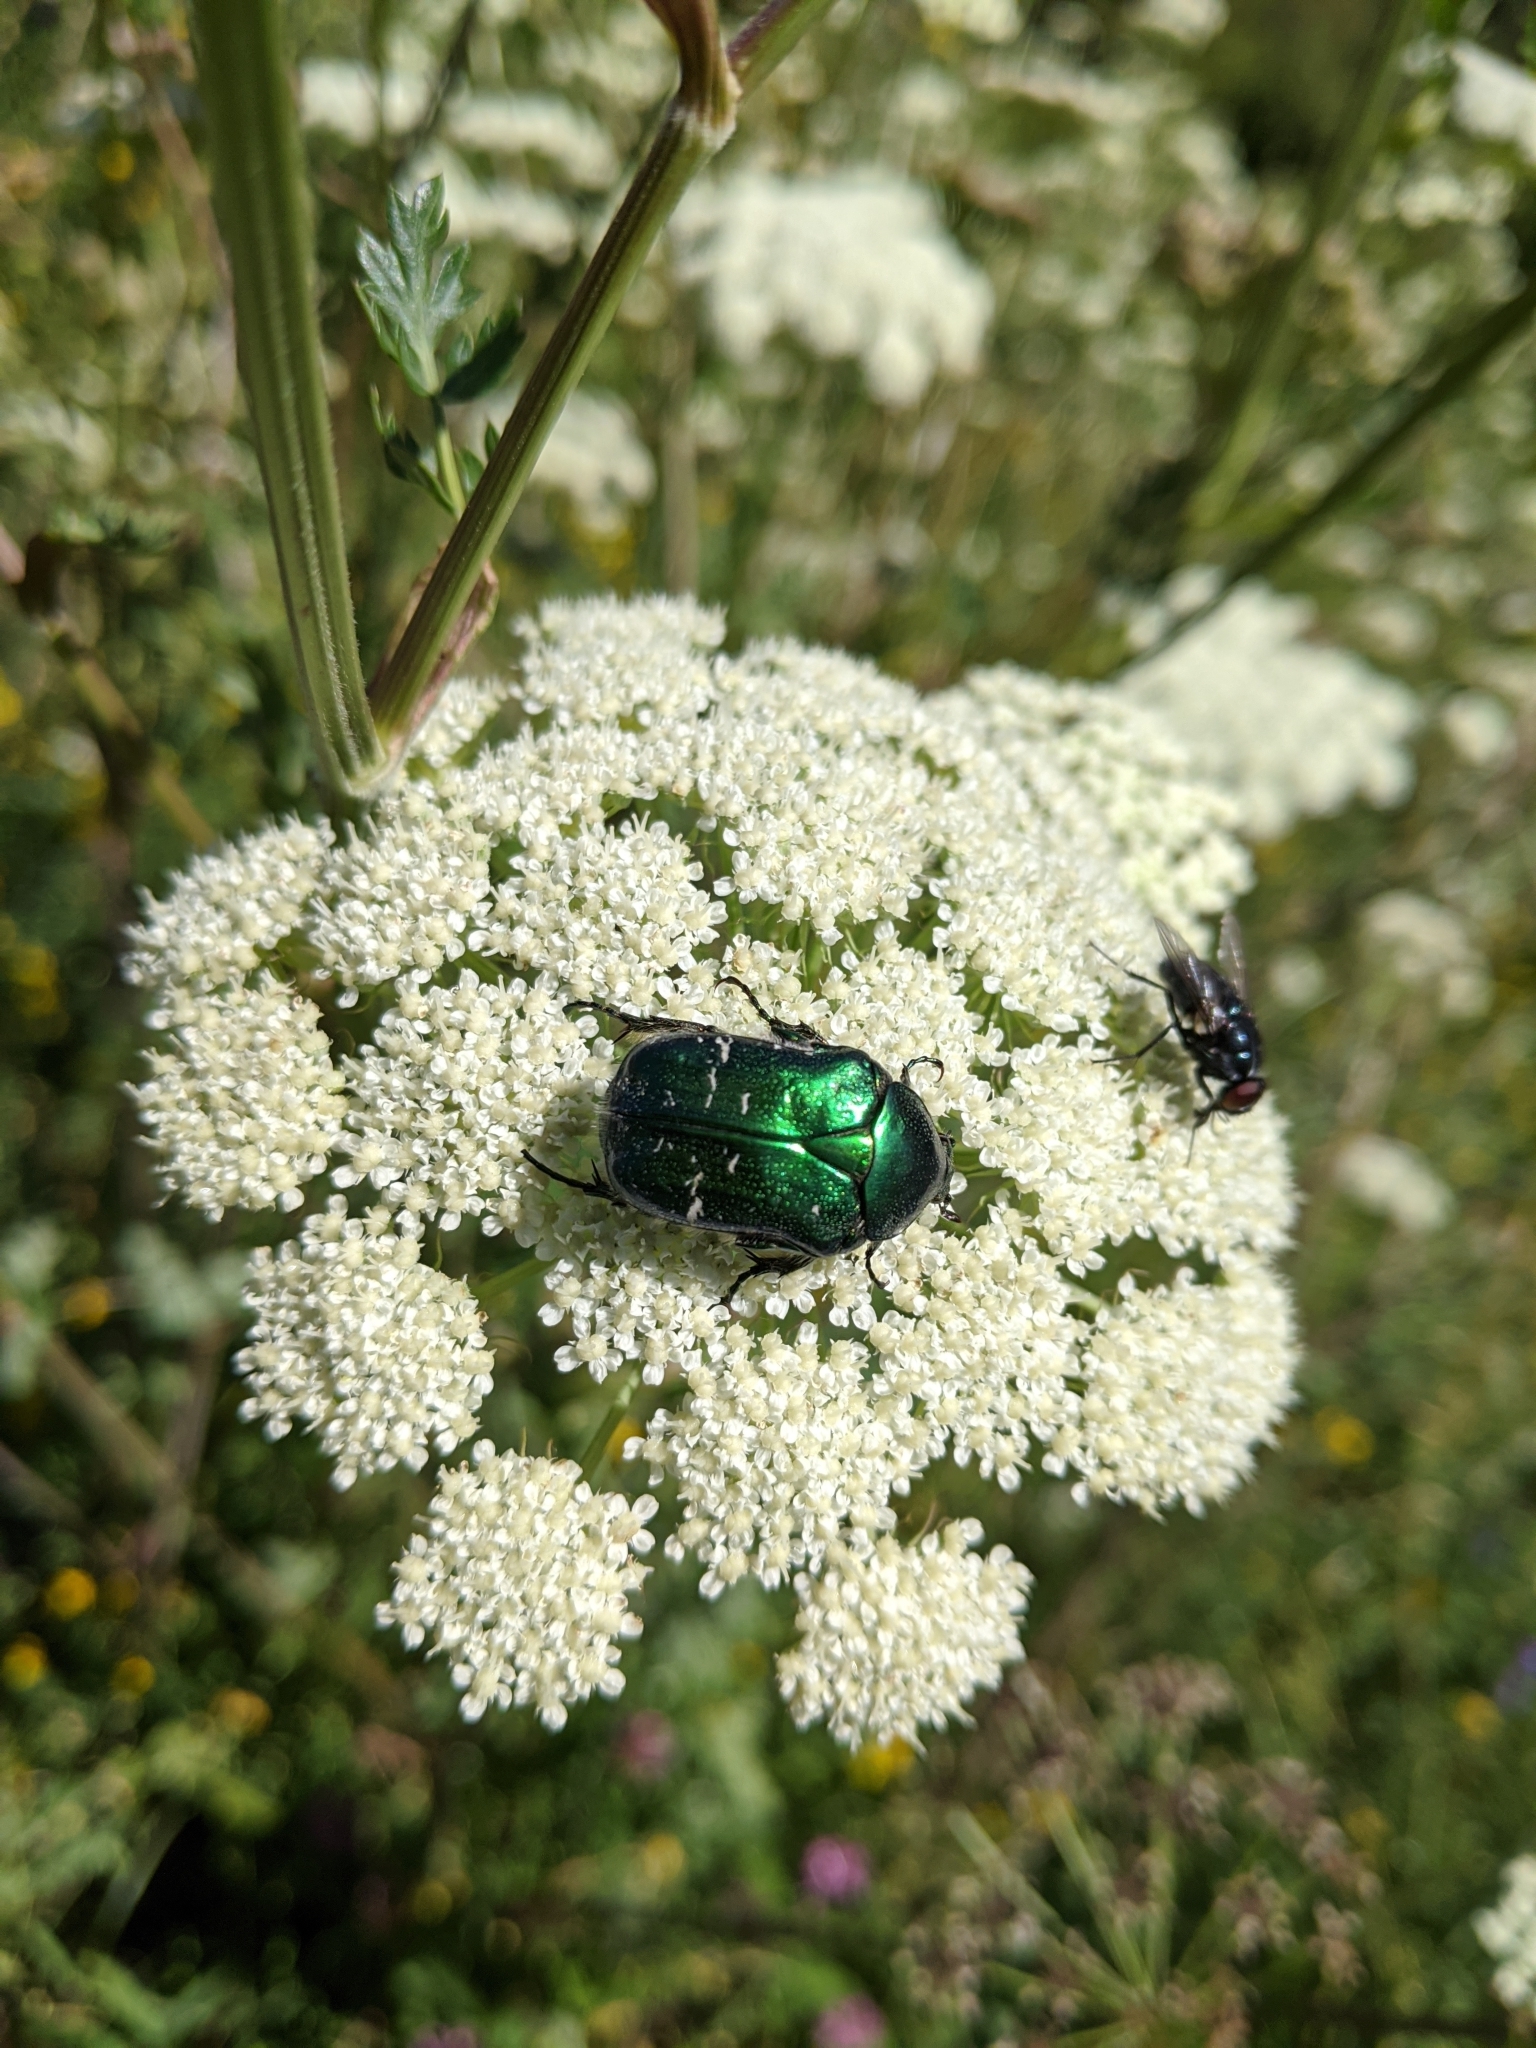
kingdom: Animalia
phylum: Arthropoda
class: Insecta
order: Coleoptera
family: Scarabaeidae
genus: Cetonia
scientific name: Cetonia aurata
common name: Rose chafer
